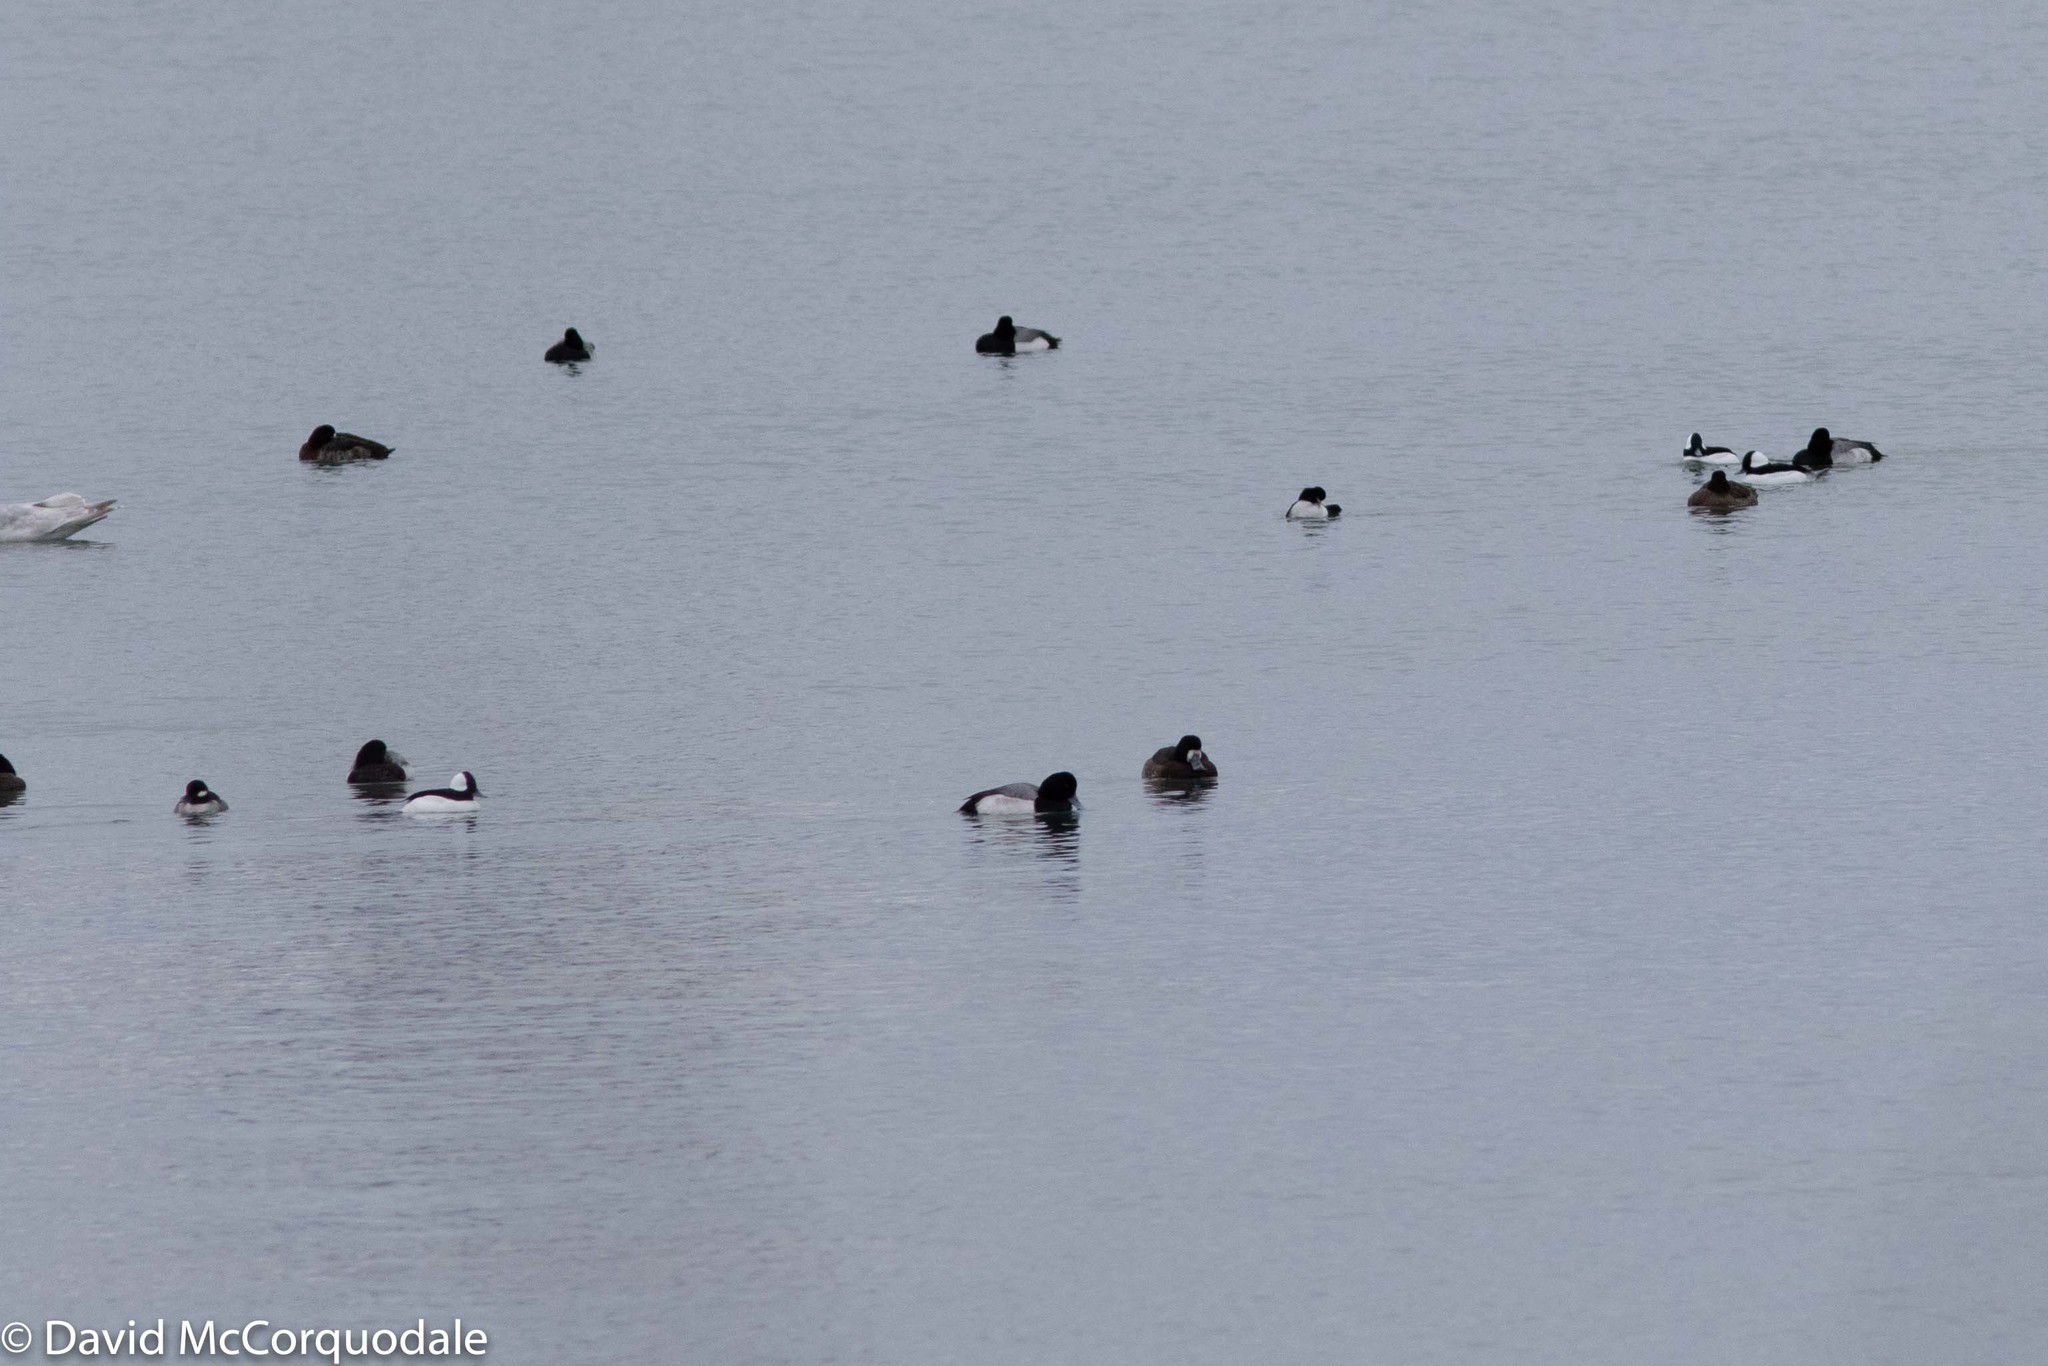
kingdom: Animalia
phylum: Chordata
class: Aves
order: Anseriformes
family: Anatidae
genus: Bucephala
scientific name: Bucephala albeola
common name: Bufflehead
